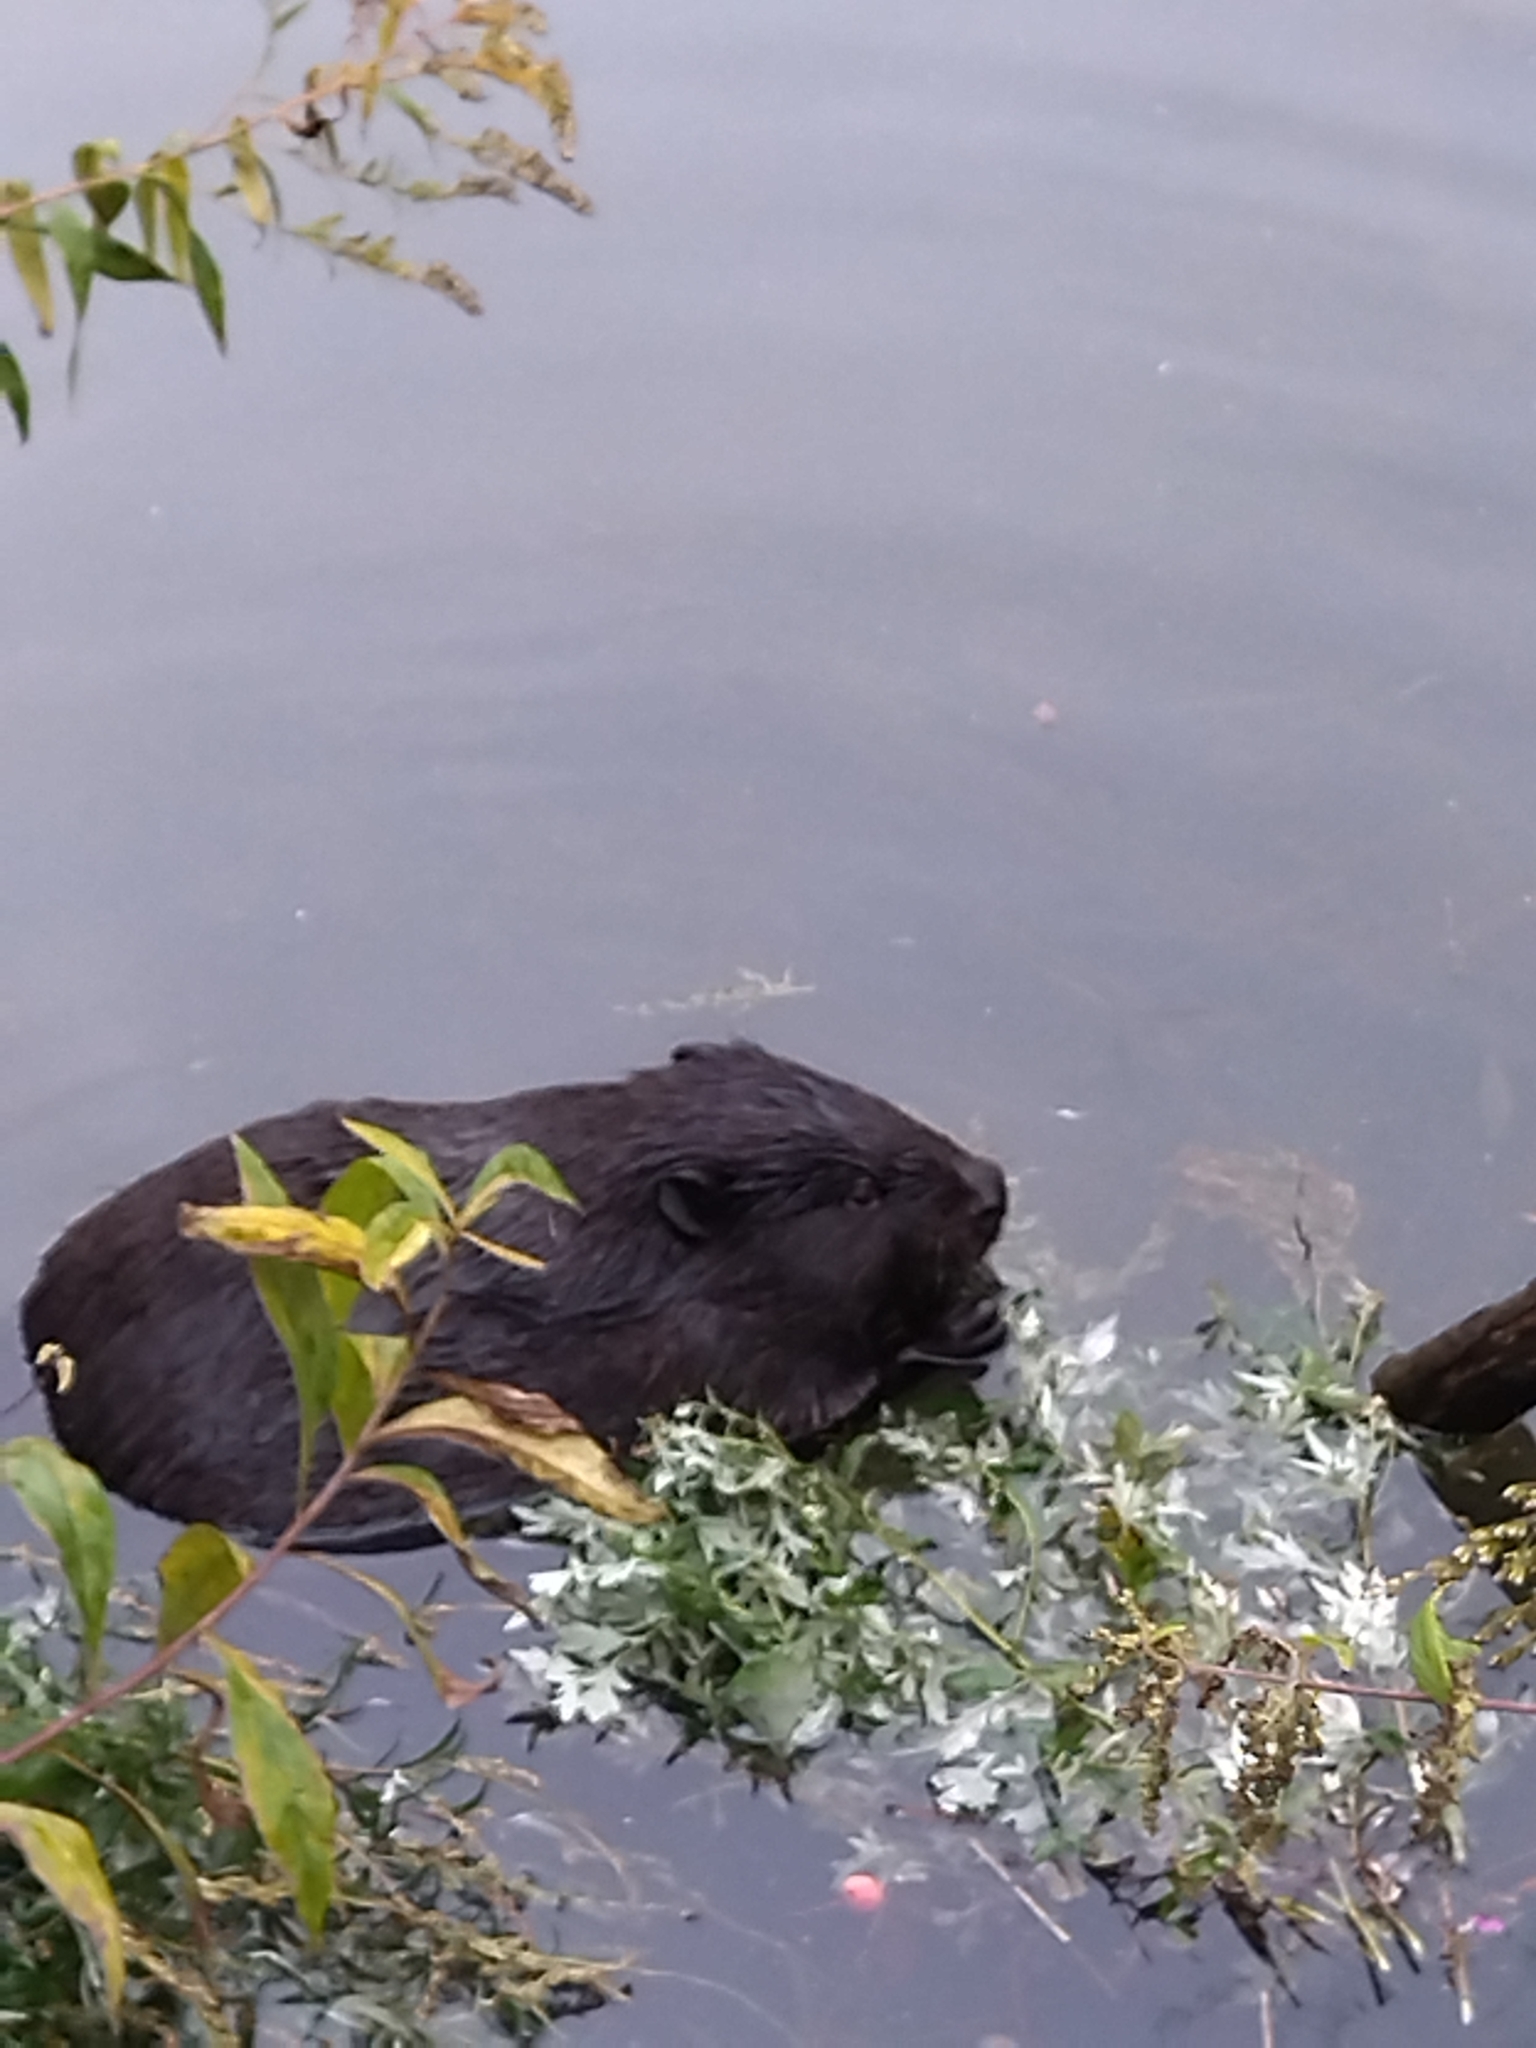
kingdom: Animalia
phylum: Chordata
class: Mammalia
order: Rodentia
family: Castoridae
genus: Castor
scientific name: Castor fiber
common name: Eurasian beaver
